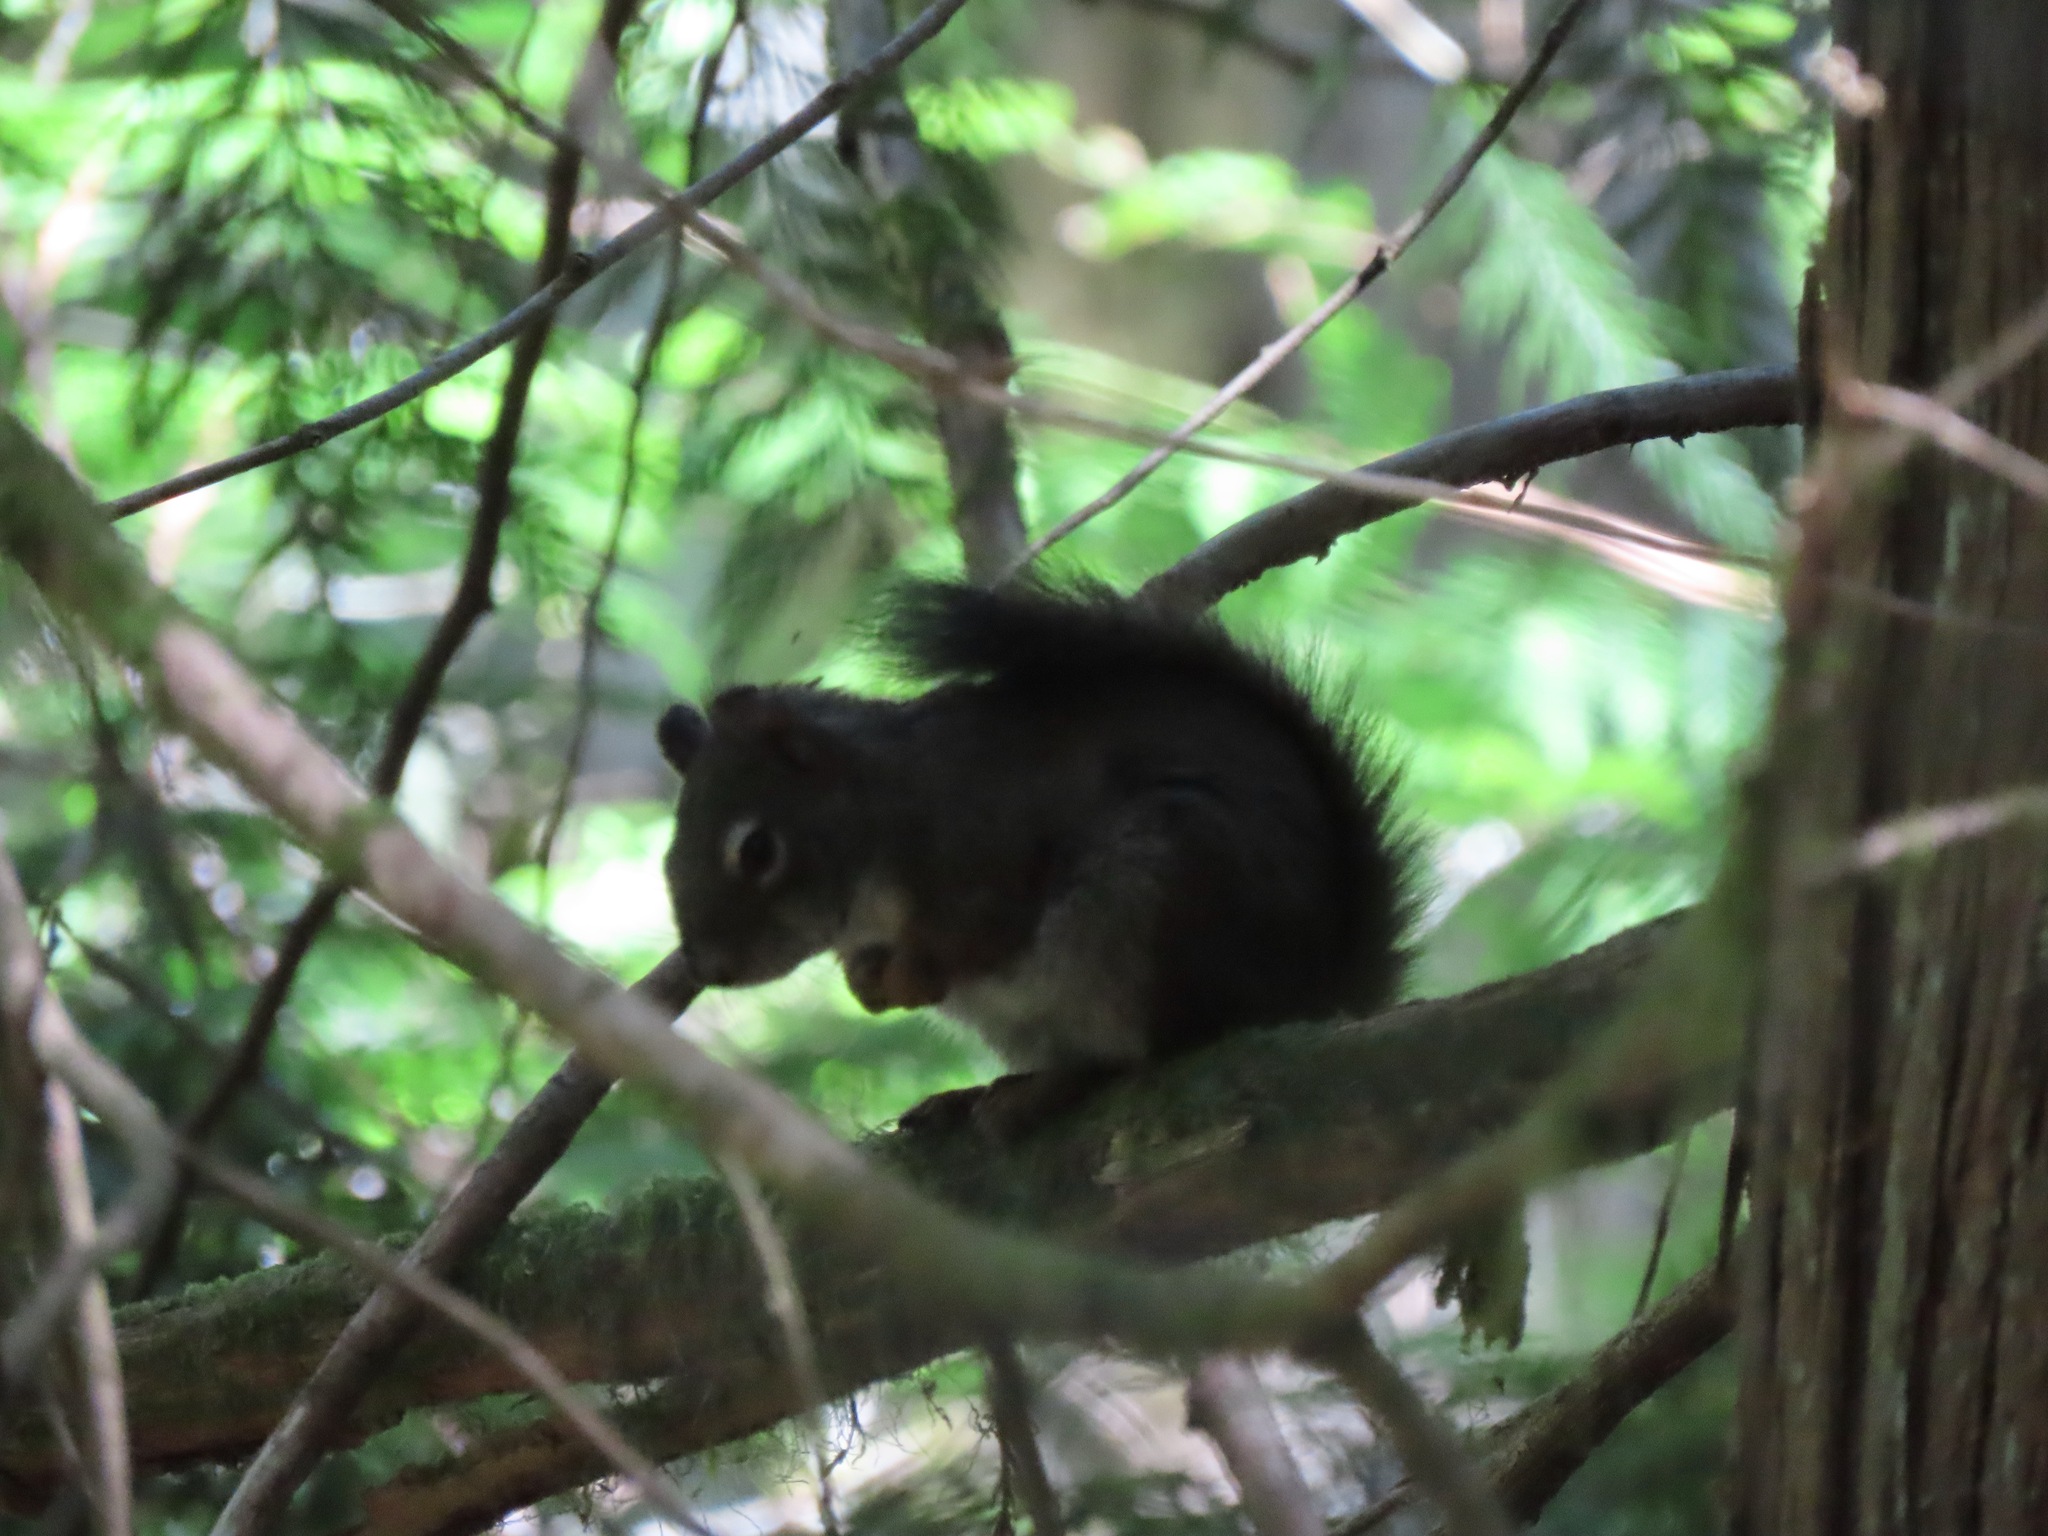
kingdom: Animalia
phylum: Chordata
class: Mammalia
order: Rodentia
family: Sciuridae
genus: Tamiasciurus
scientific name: Tamiasciurus hudsonicus
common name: Red squirrel
